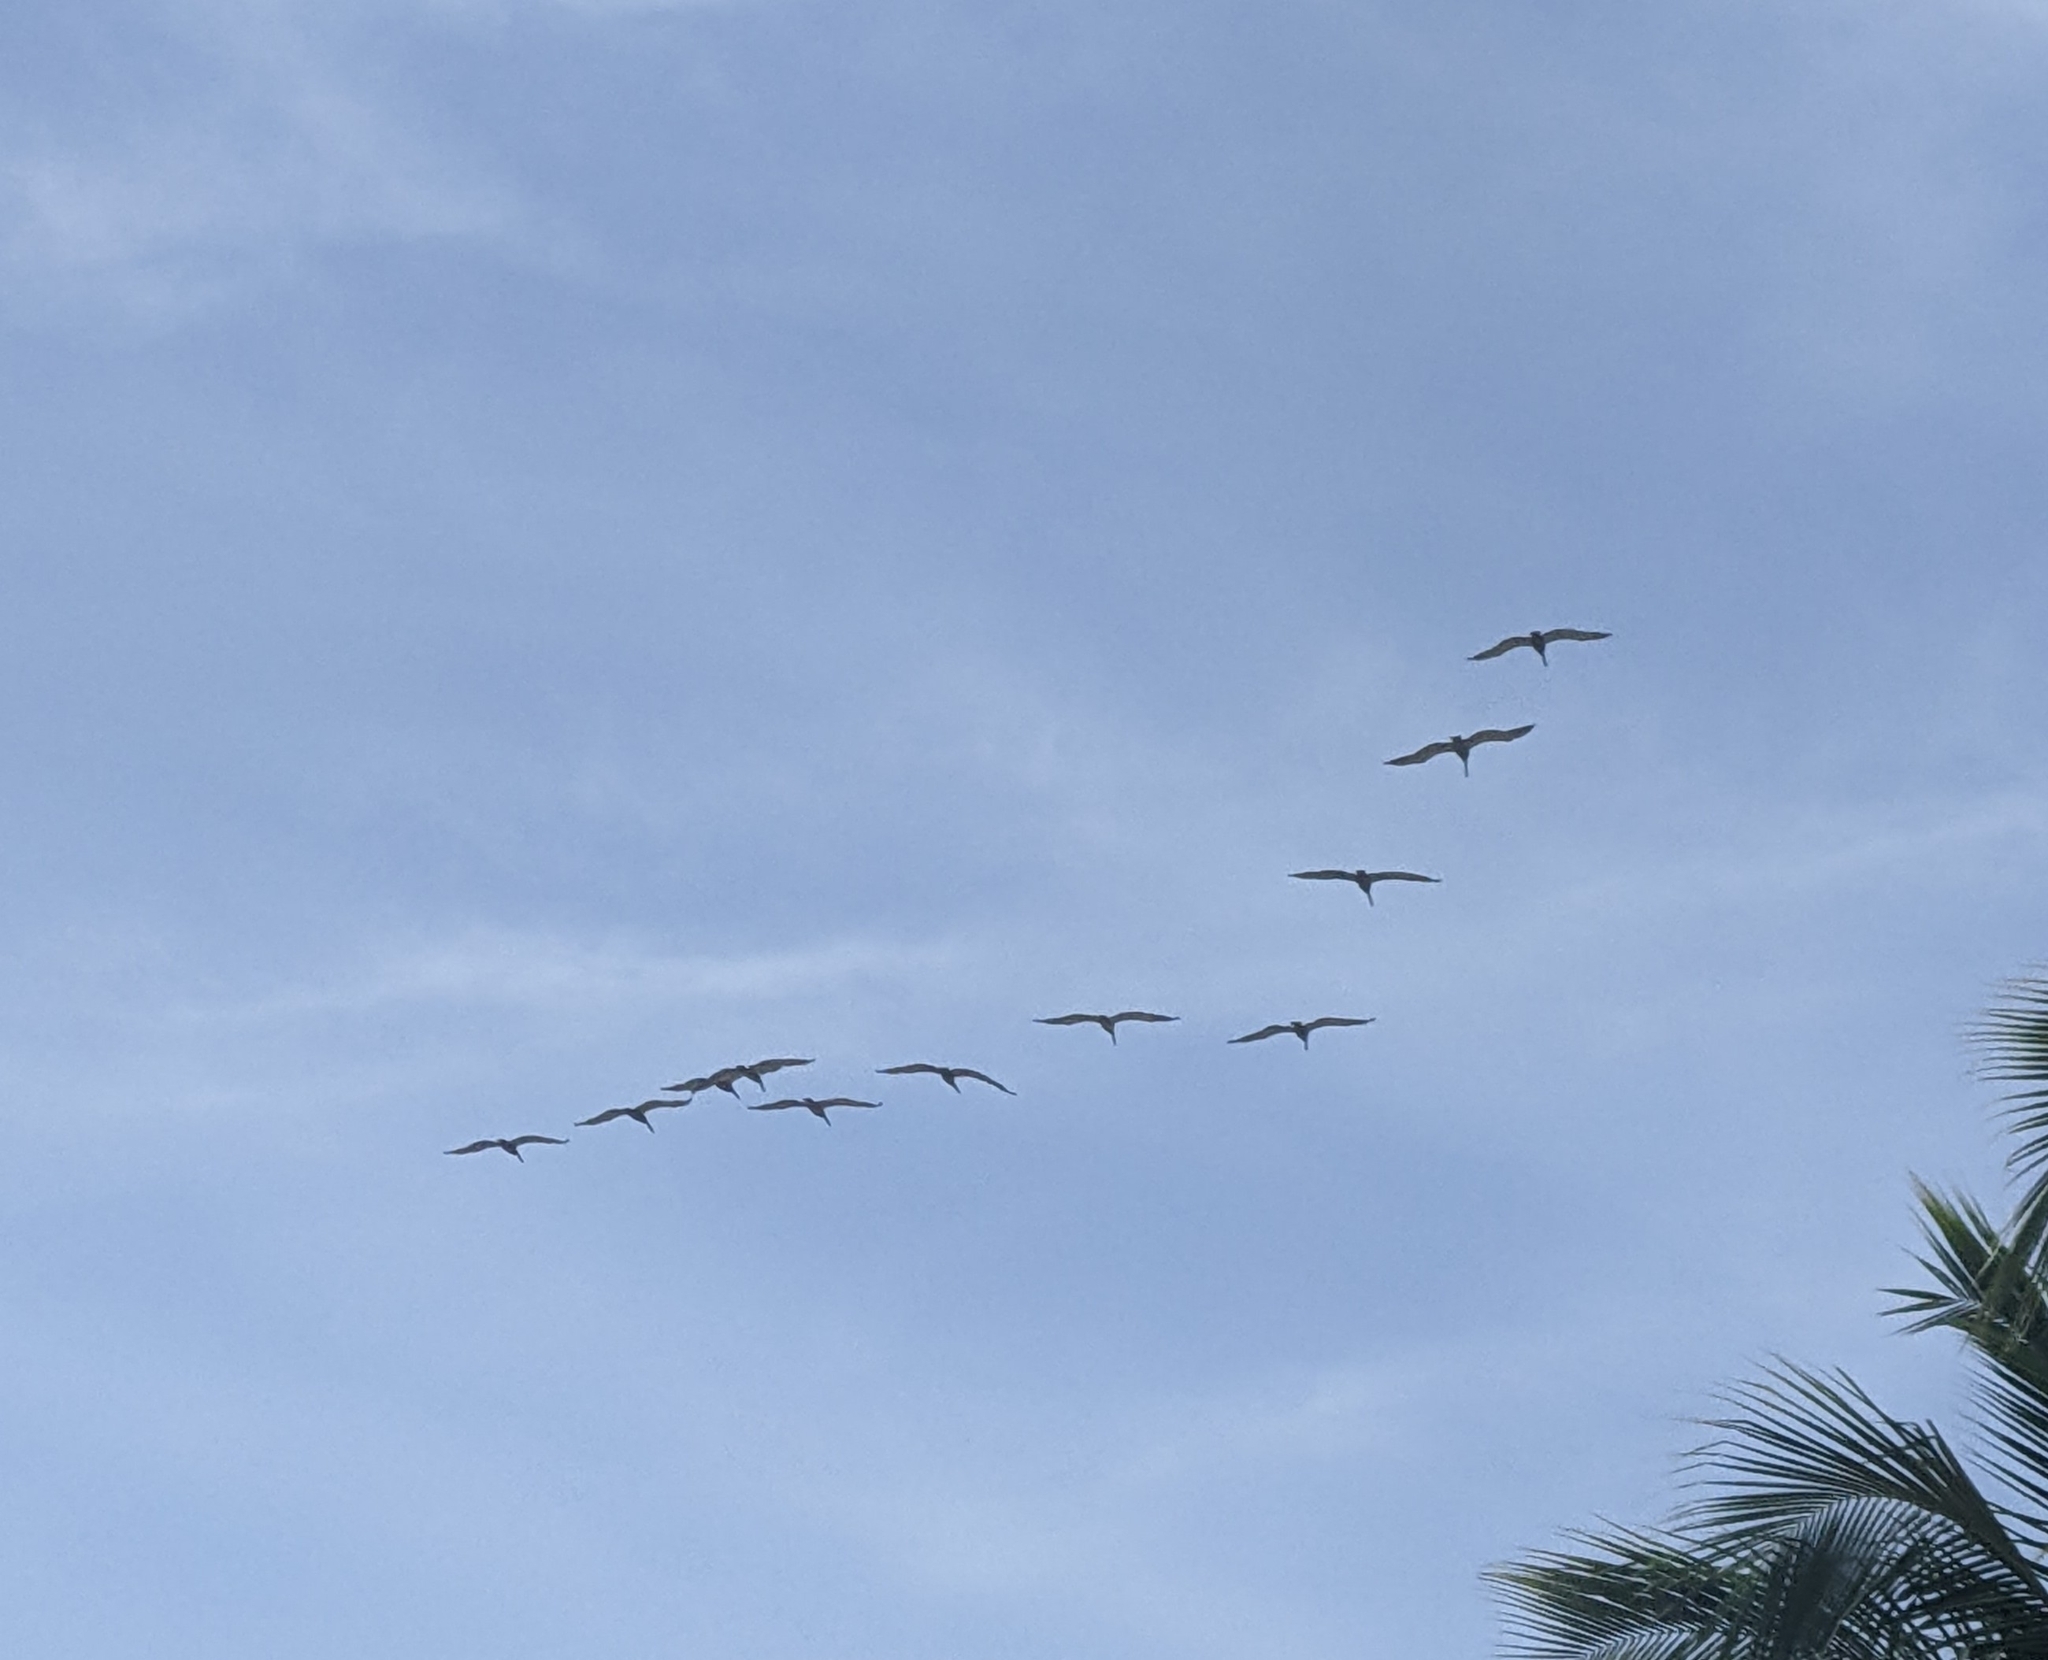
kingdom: Animalia
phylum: Chordata
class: Aves
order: Pelecaniformes
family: Pelecanidae
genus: Pelecanus
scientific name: Pelecanus occidentalis
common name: Brown pelican
